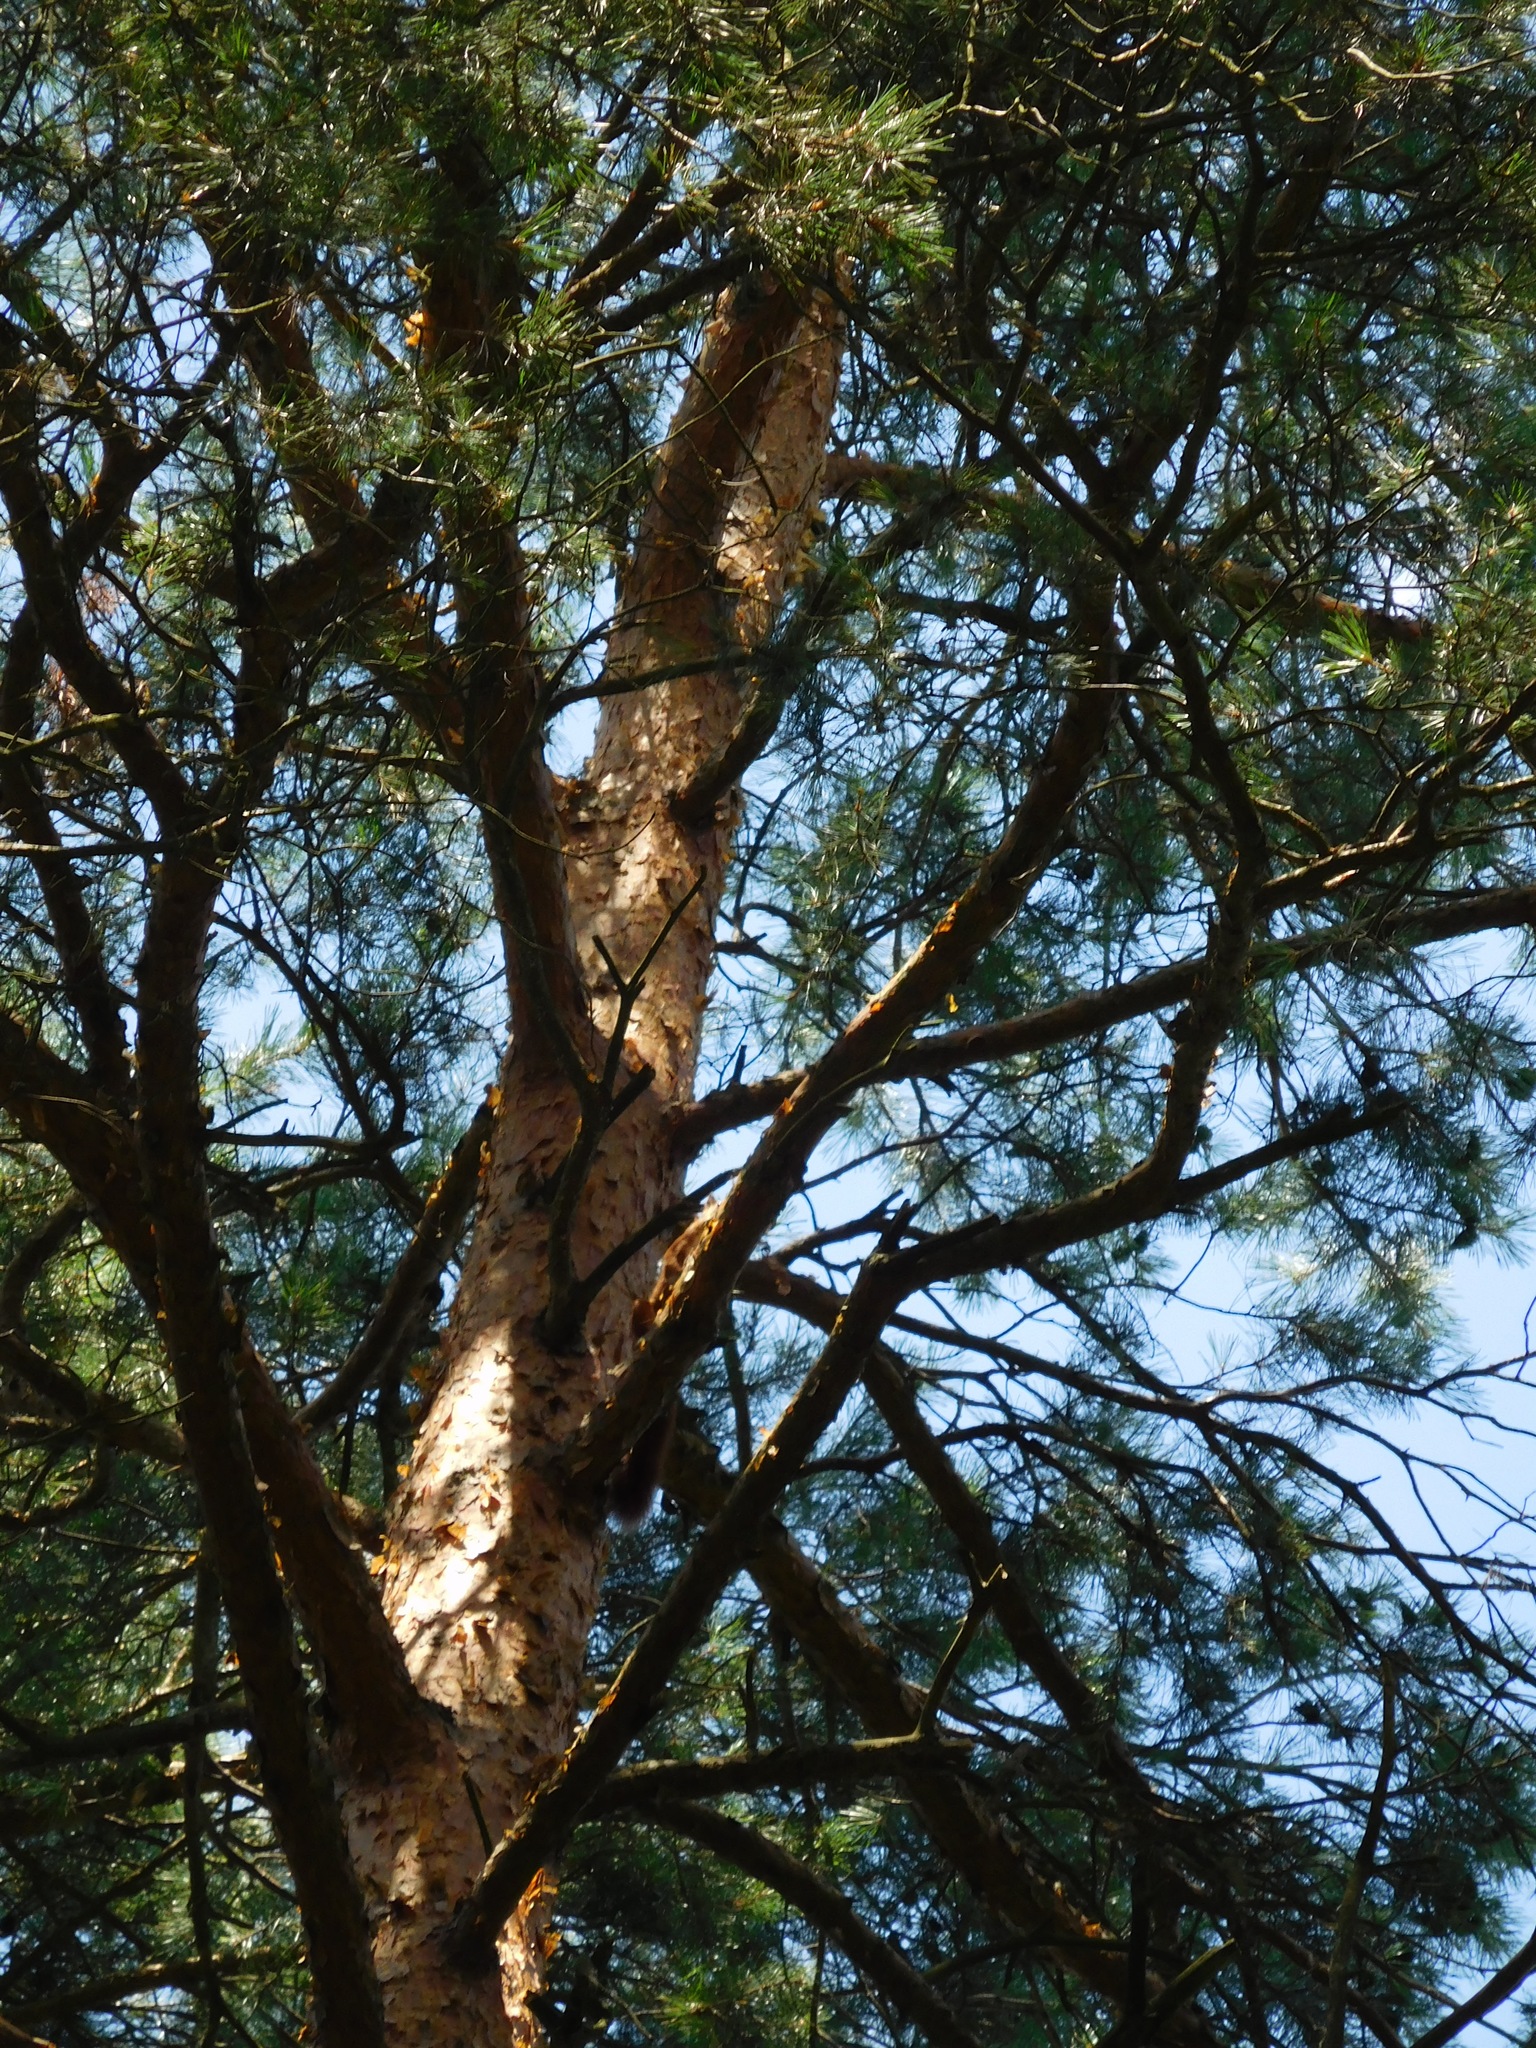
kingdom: Plantae
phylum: Tracheophyta
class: Pinopsida
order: Pinales
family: Pinaceae
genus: Pinus
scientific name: Pinus sylvestris
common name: Scots pine
